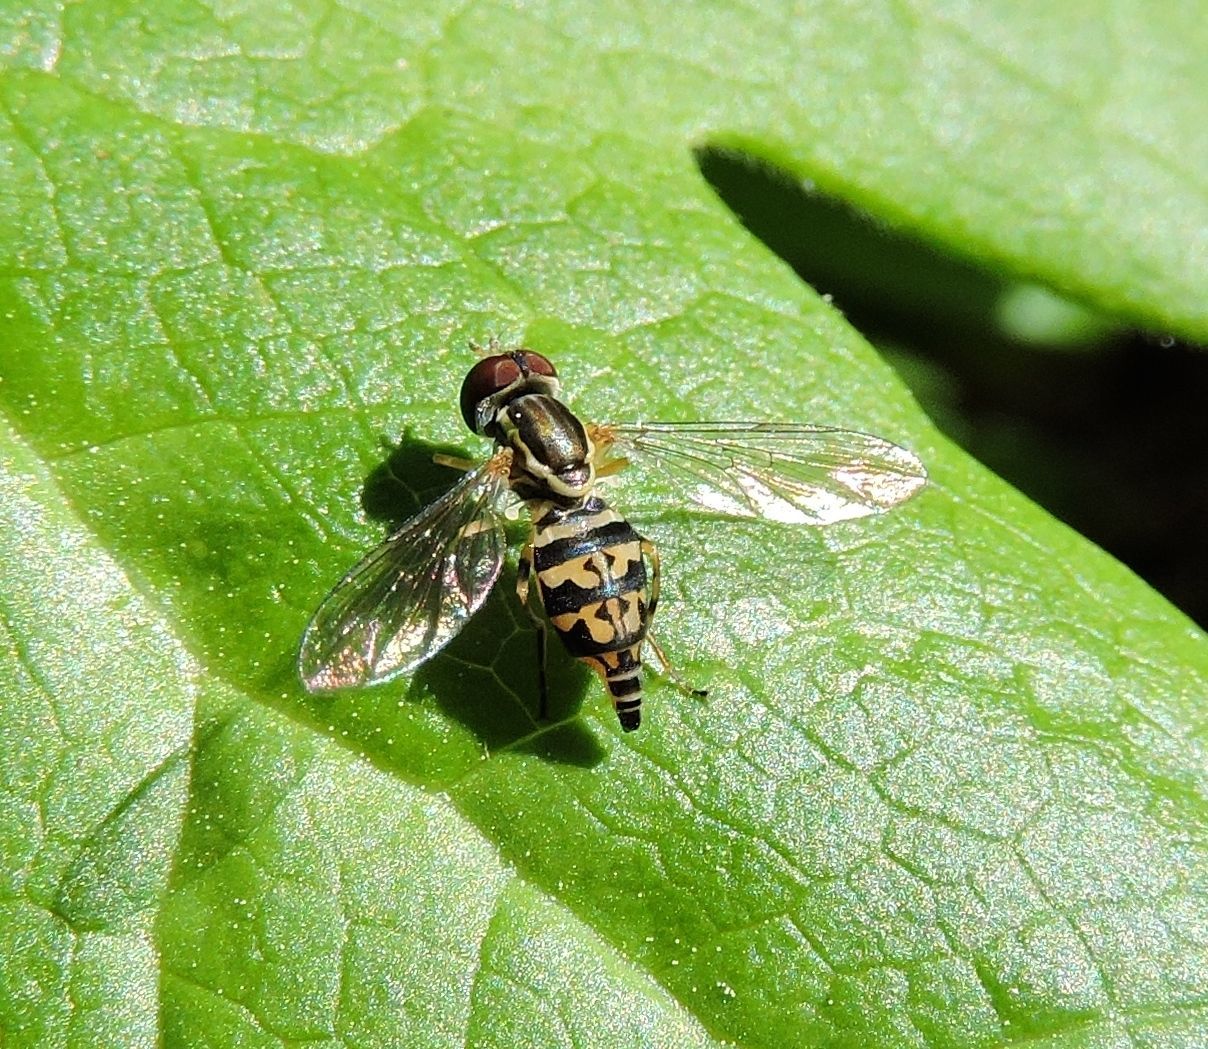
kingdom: Animalia
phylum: Arthropoda
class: Insecta
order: Diptera
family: Syrphidae
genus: Toxomerus
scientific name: Toxomerus geminatus
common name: Eastern calligrapher
